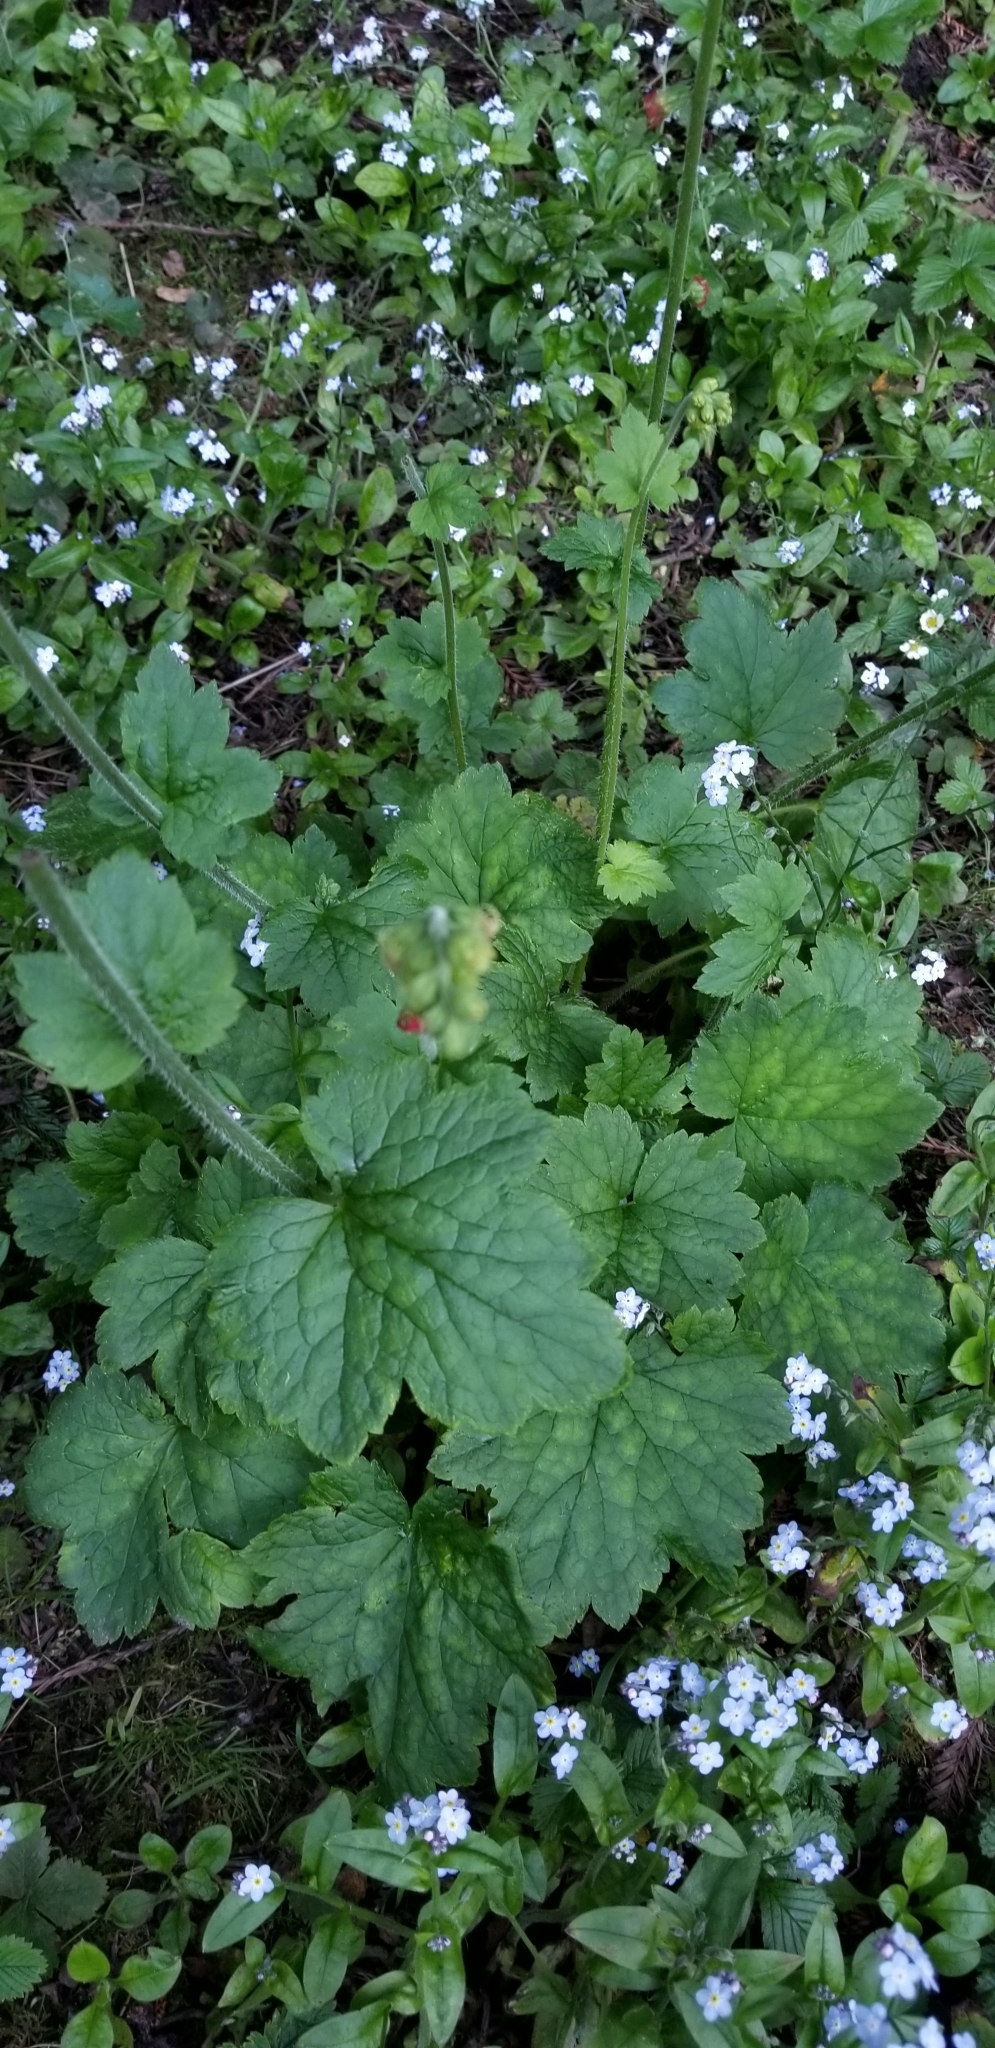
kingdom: Plantae
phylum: Tracheophyta
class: Magnoliopsida
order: Saxifragales
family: Saxifragaceae
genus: Tellima
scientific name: Tellima grandiflora
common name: Fringecups
